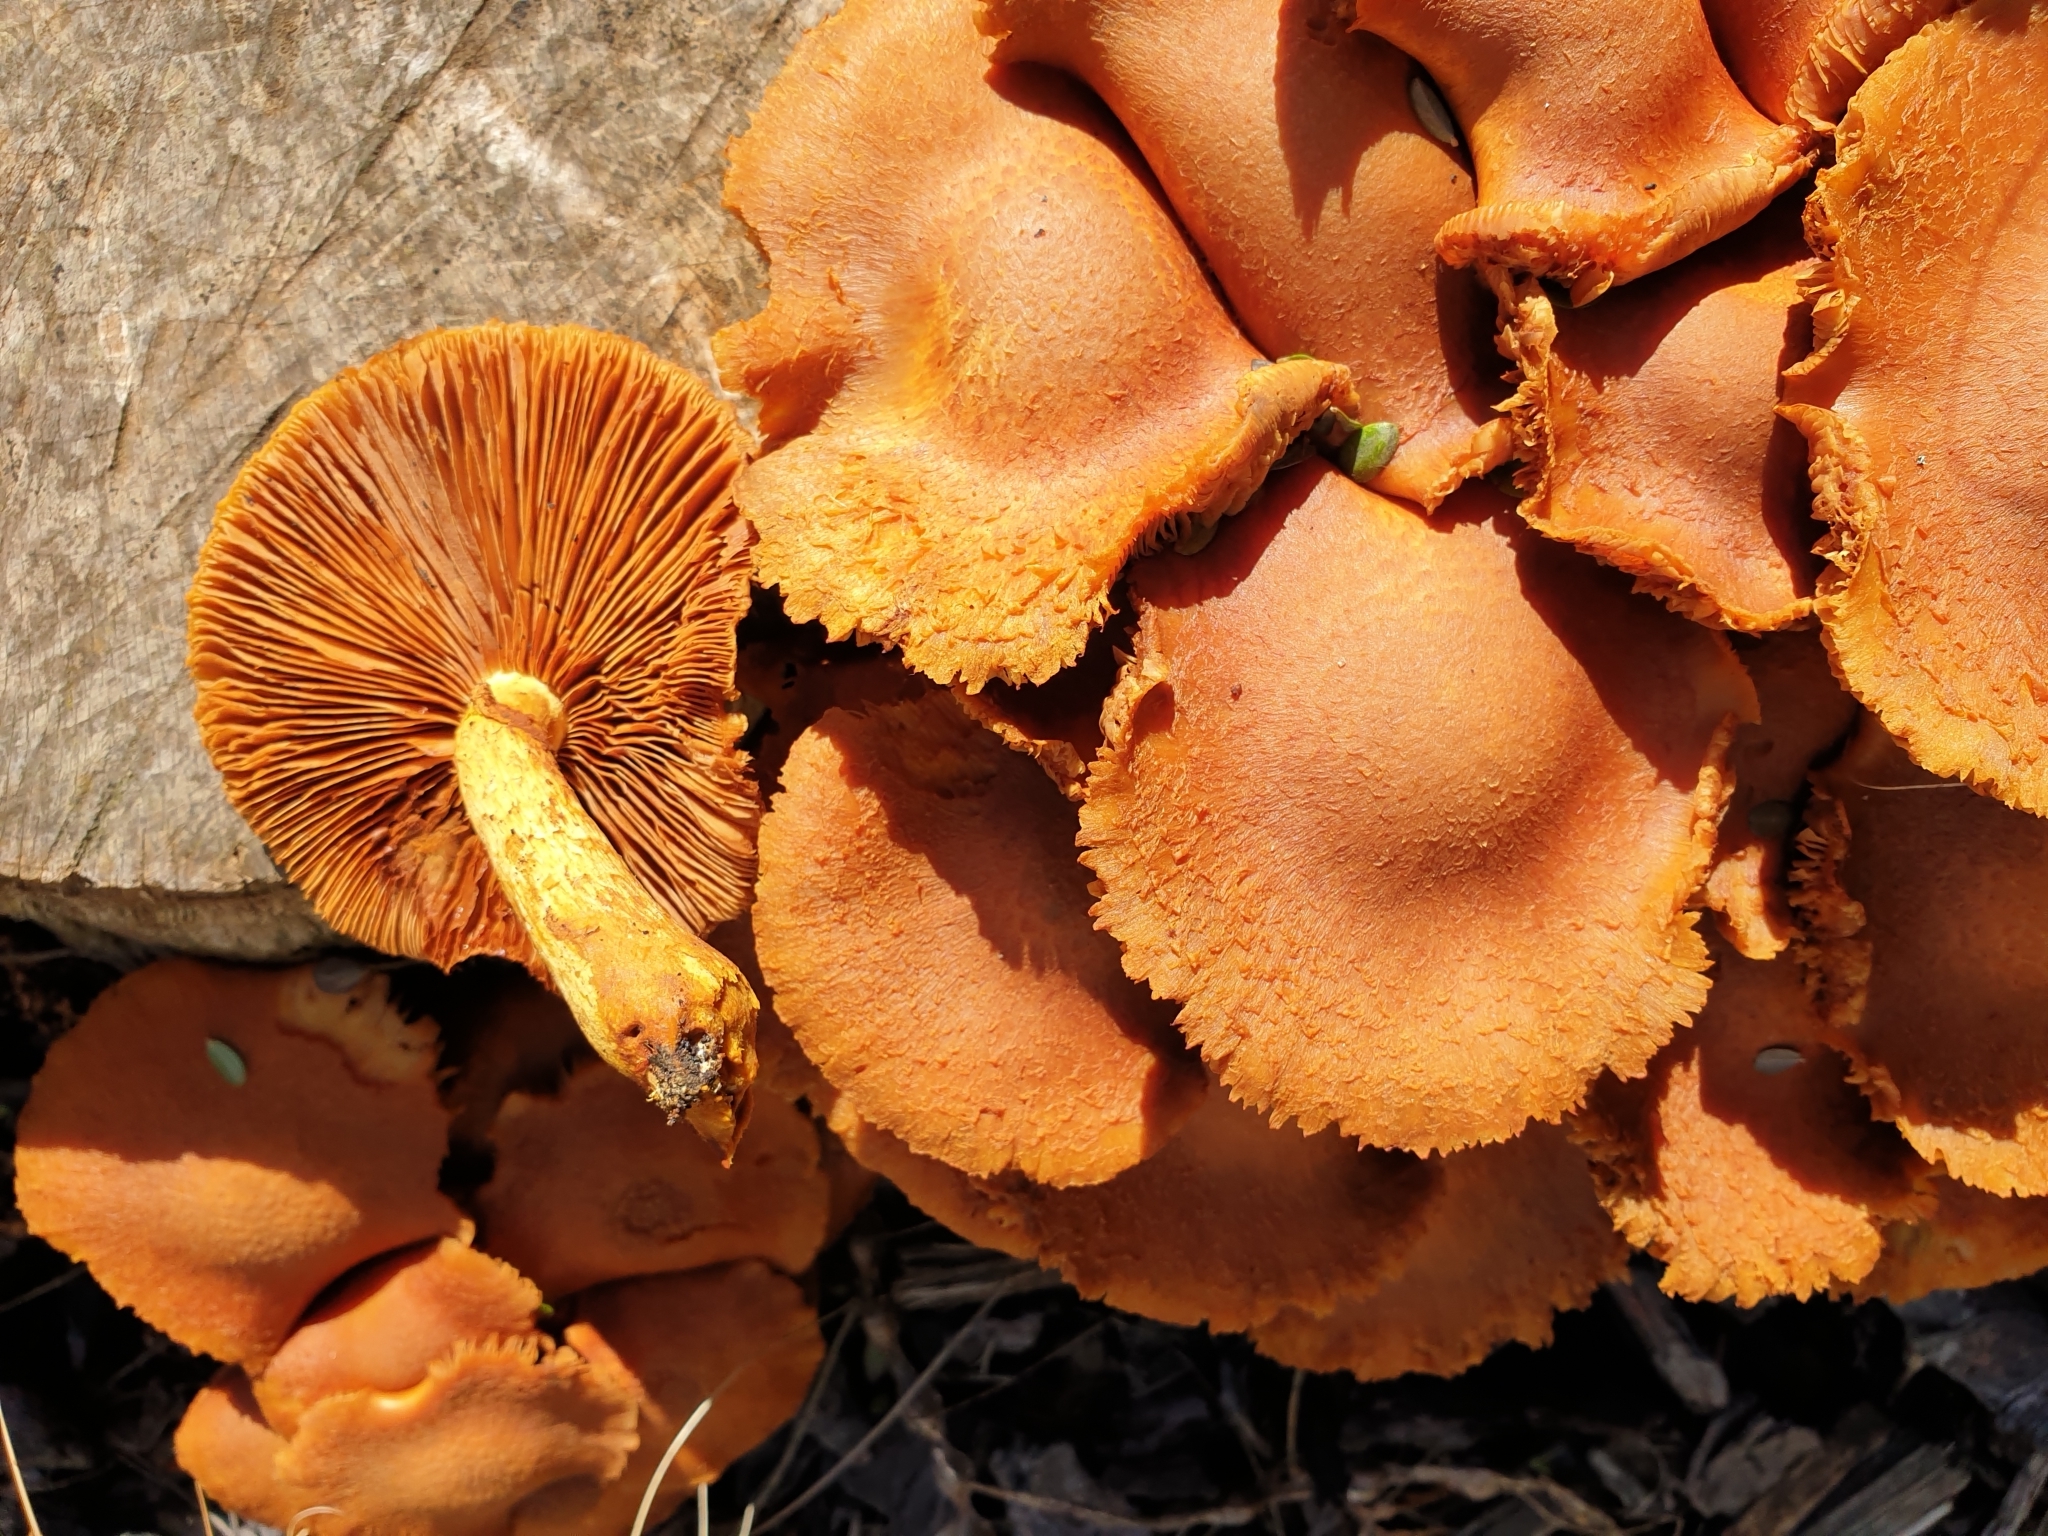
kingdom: Fungi
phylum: Basidiomycota
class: Agaricomycetes
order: Agaricales
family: Hymenogastraceae
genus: Gymnopilus
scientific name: Gymnopilus junonius
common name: Spectacular rustgill
